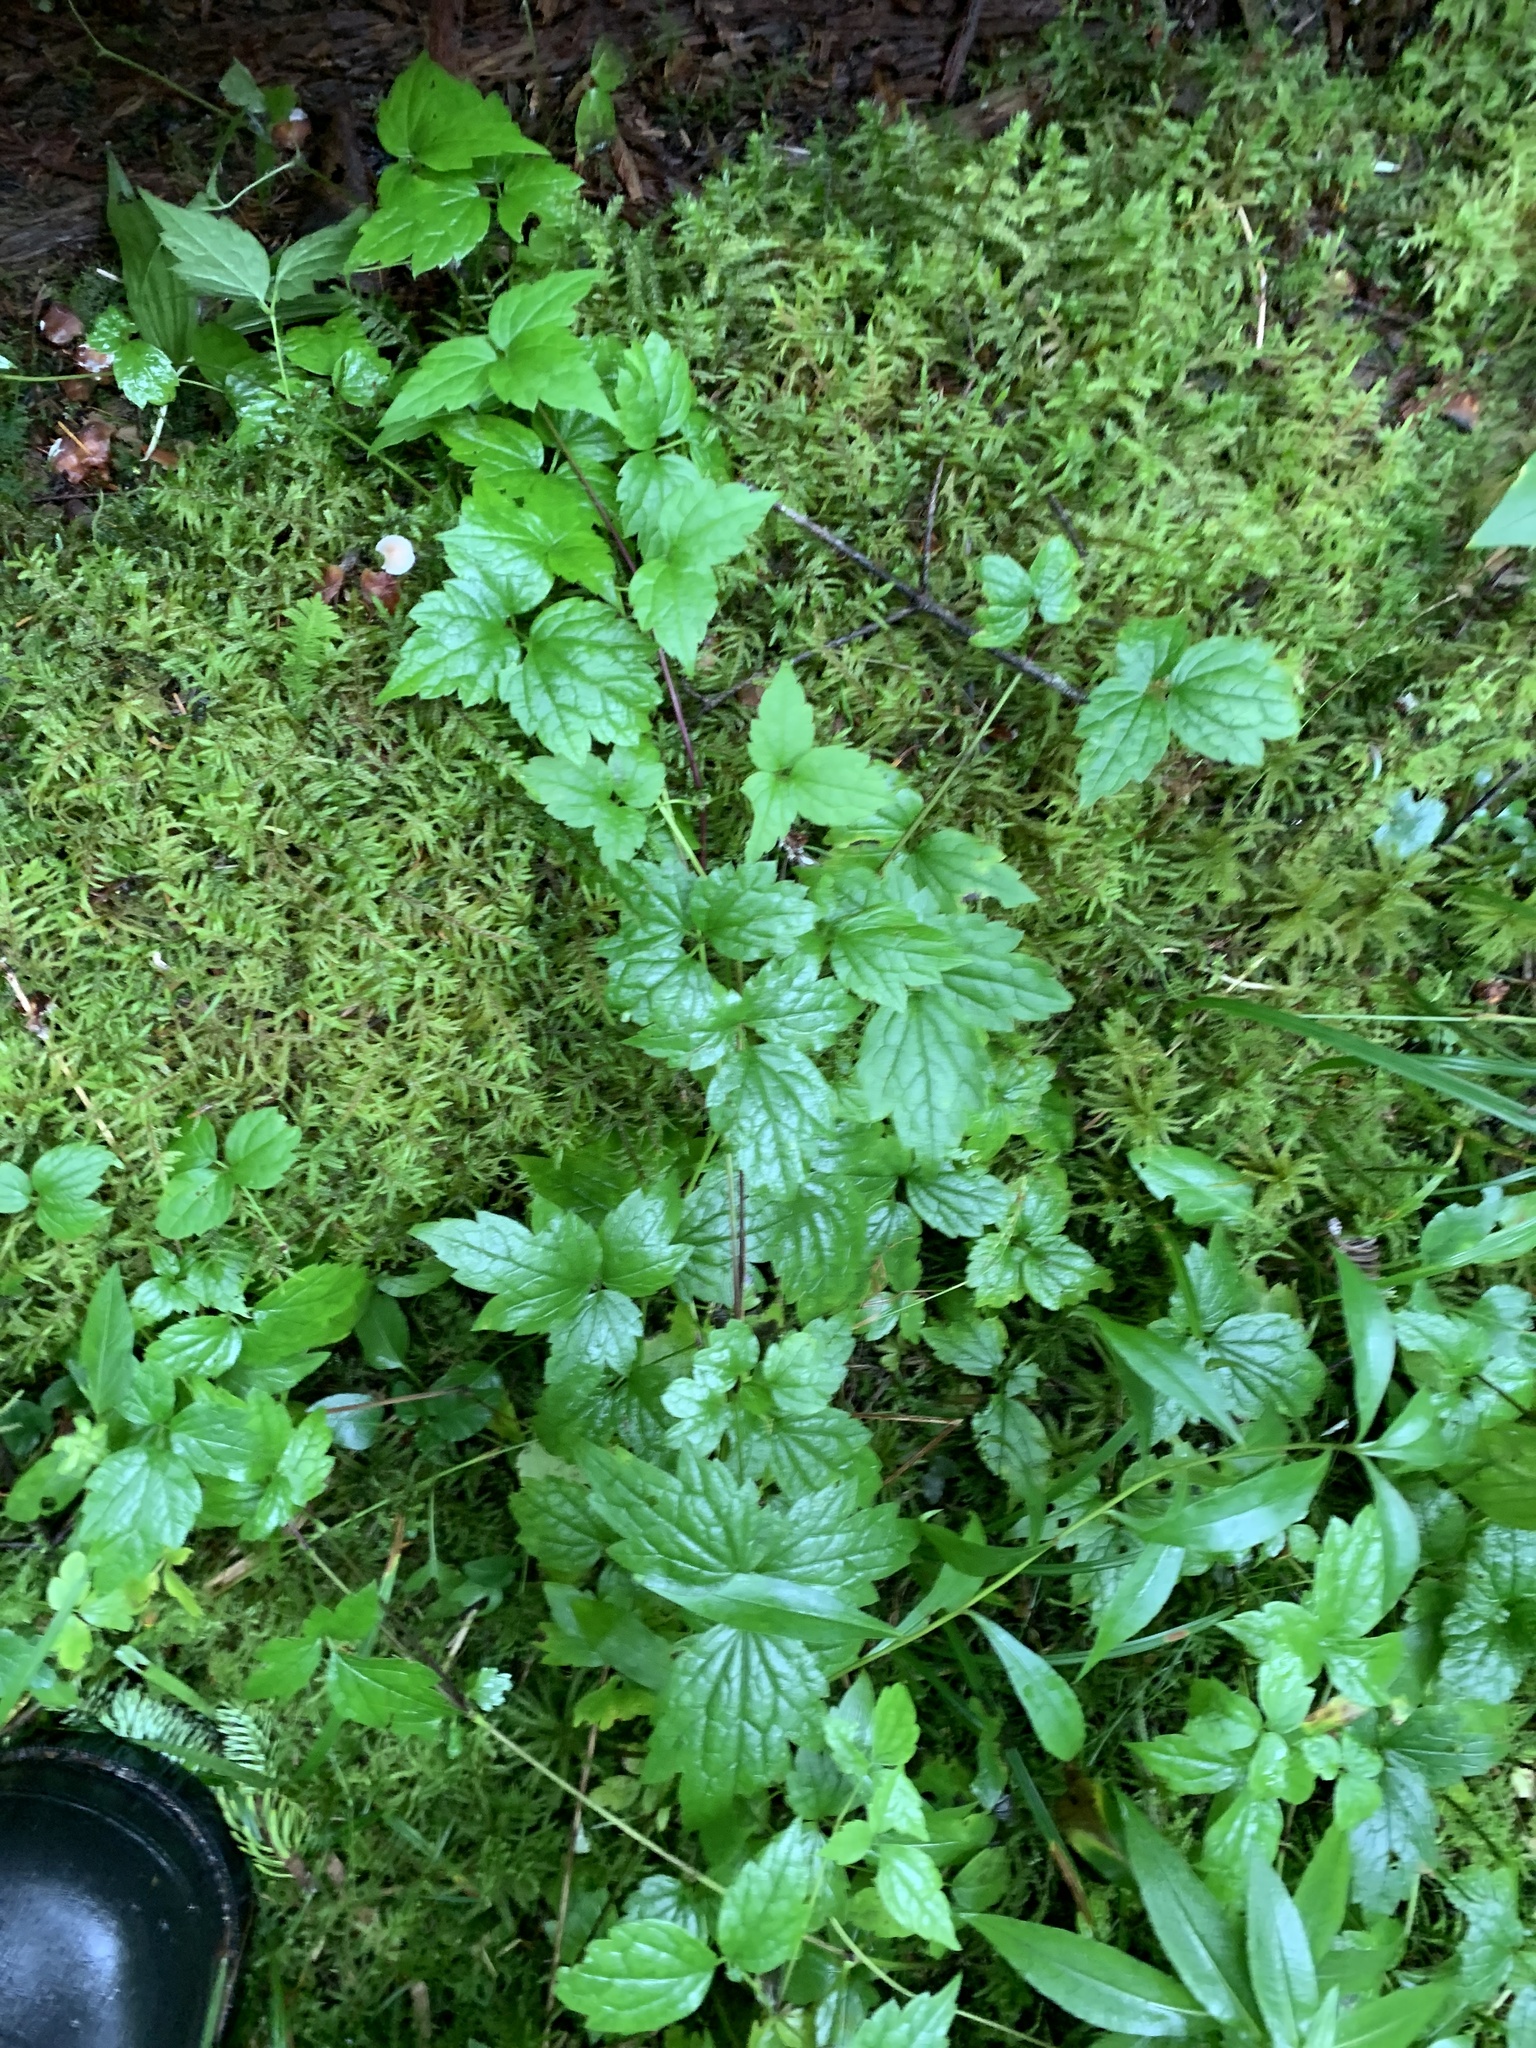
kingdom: Plantae
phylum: Tracheophyta
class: Magnoliopsida
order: Ranunculales
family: Ranunculaceae
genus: Clematis
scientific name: Clematis virginiana
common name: Virgin's-bower
